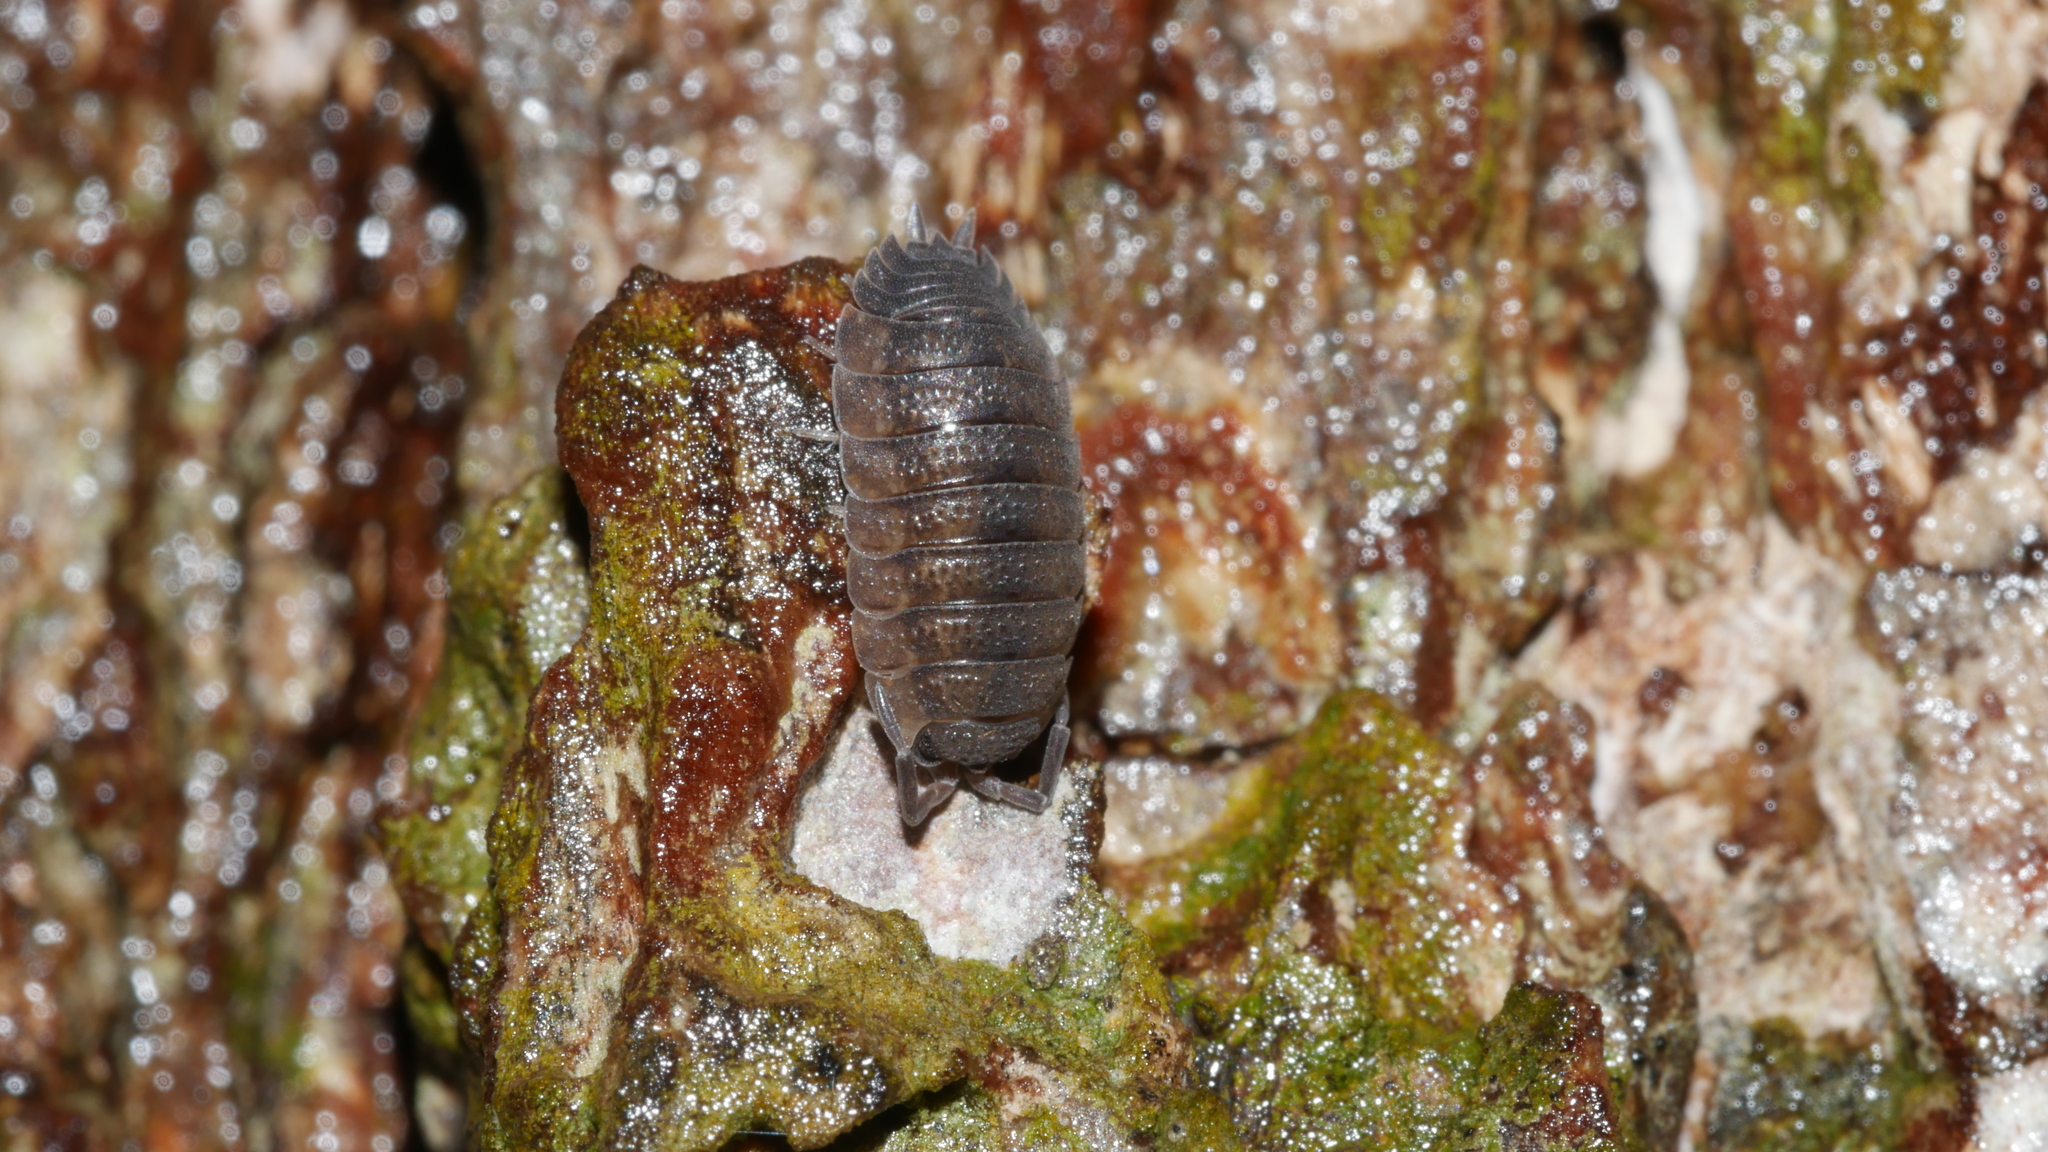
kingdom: Animalia
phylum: Arthropoda
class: Malacostraca
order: Isopoda
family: Porcellionidae
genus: Porcellio
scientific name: Porcellio scaber
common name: Common rough woodlouse
